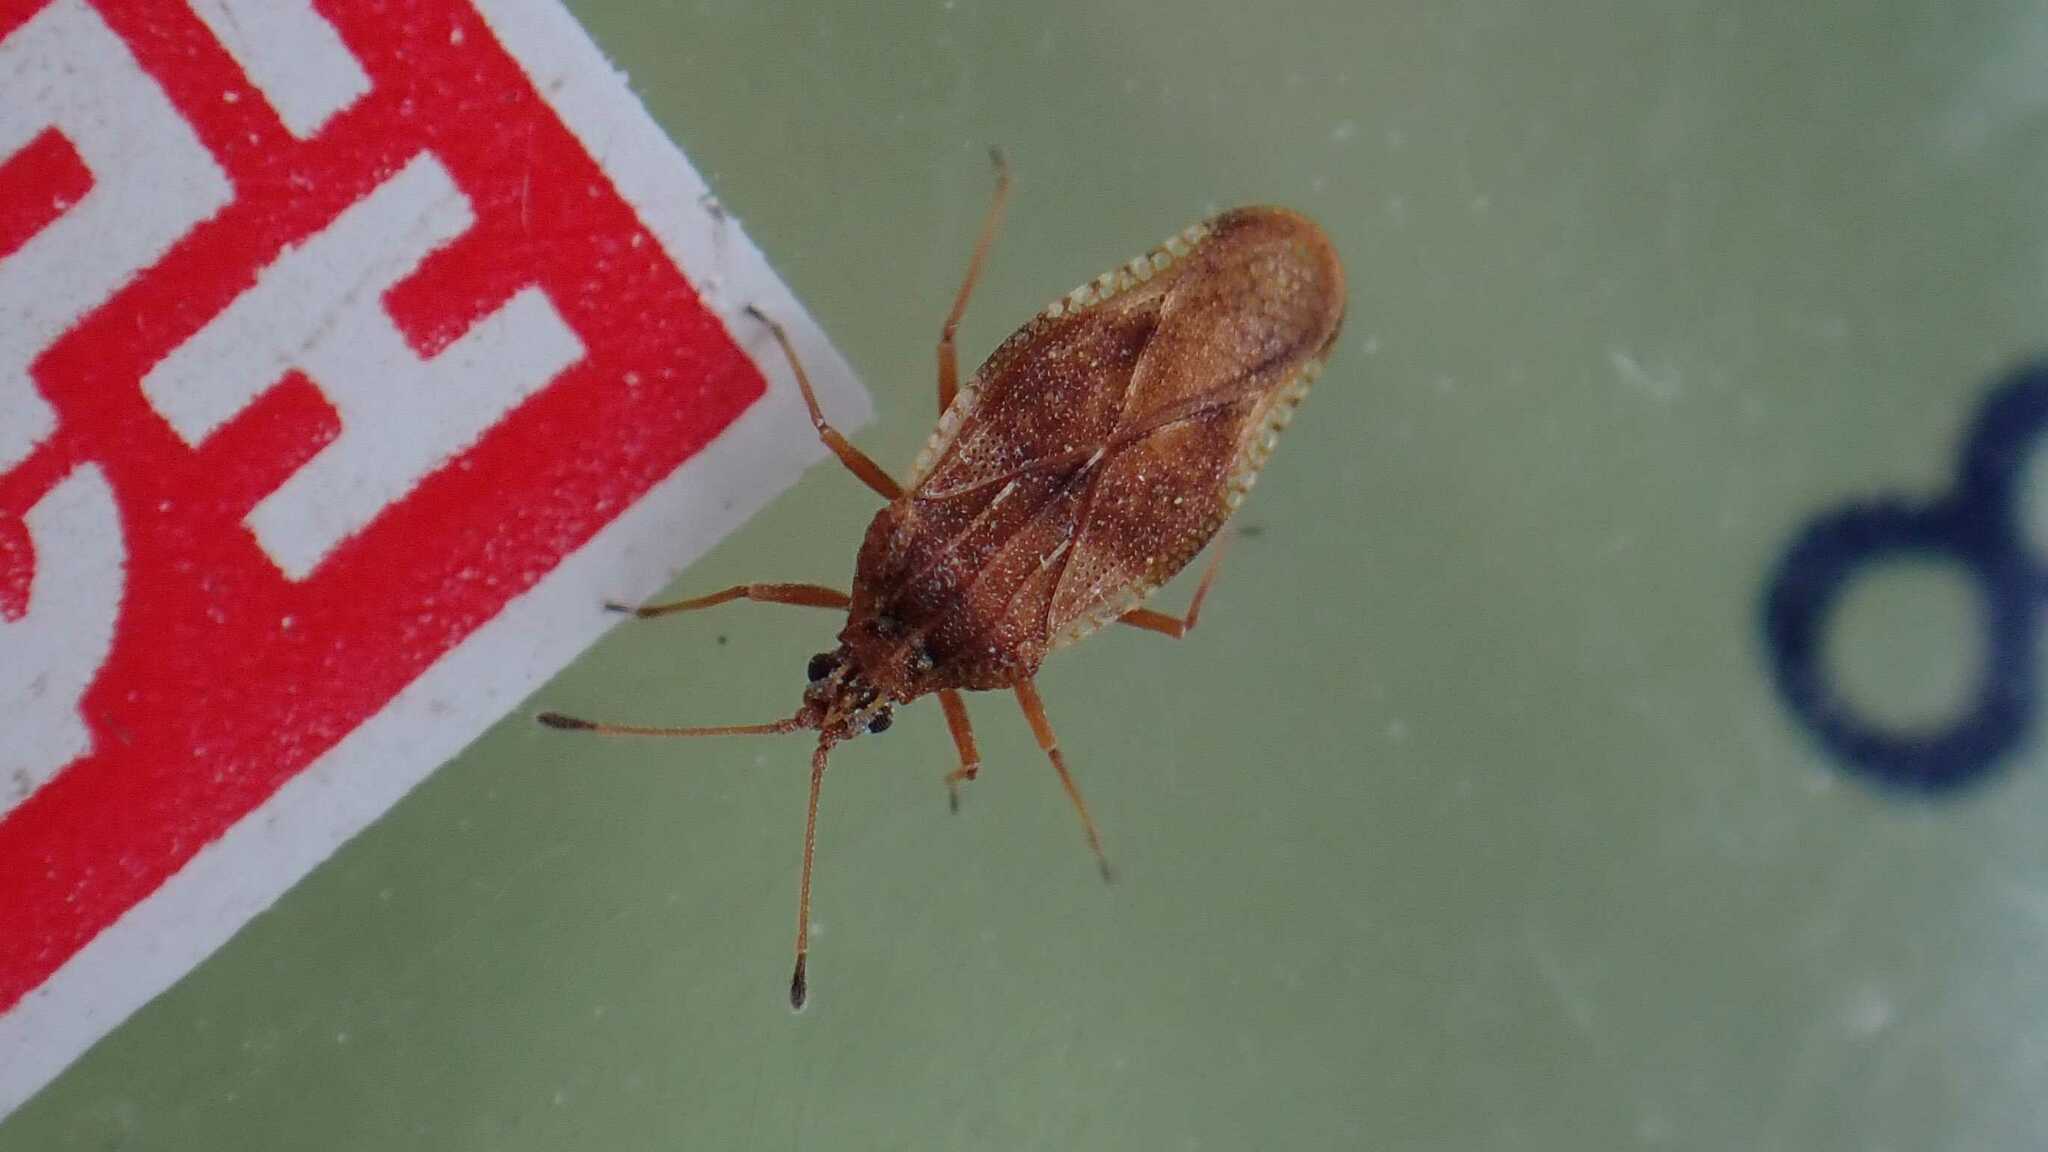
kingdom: Animalia
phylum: Arthropoda
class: Insecta
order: Hemiptera
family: Tingidae
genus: Physatocheila
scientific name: Physatocheila dumetorum
